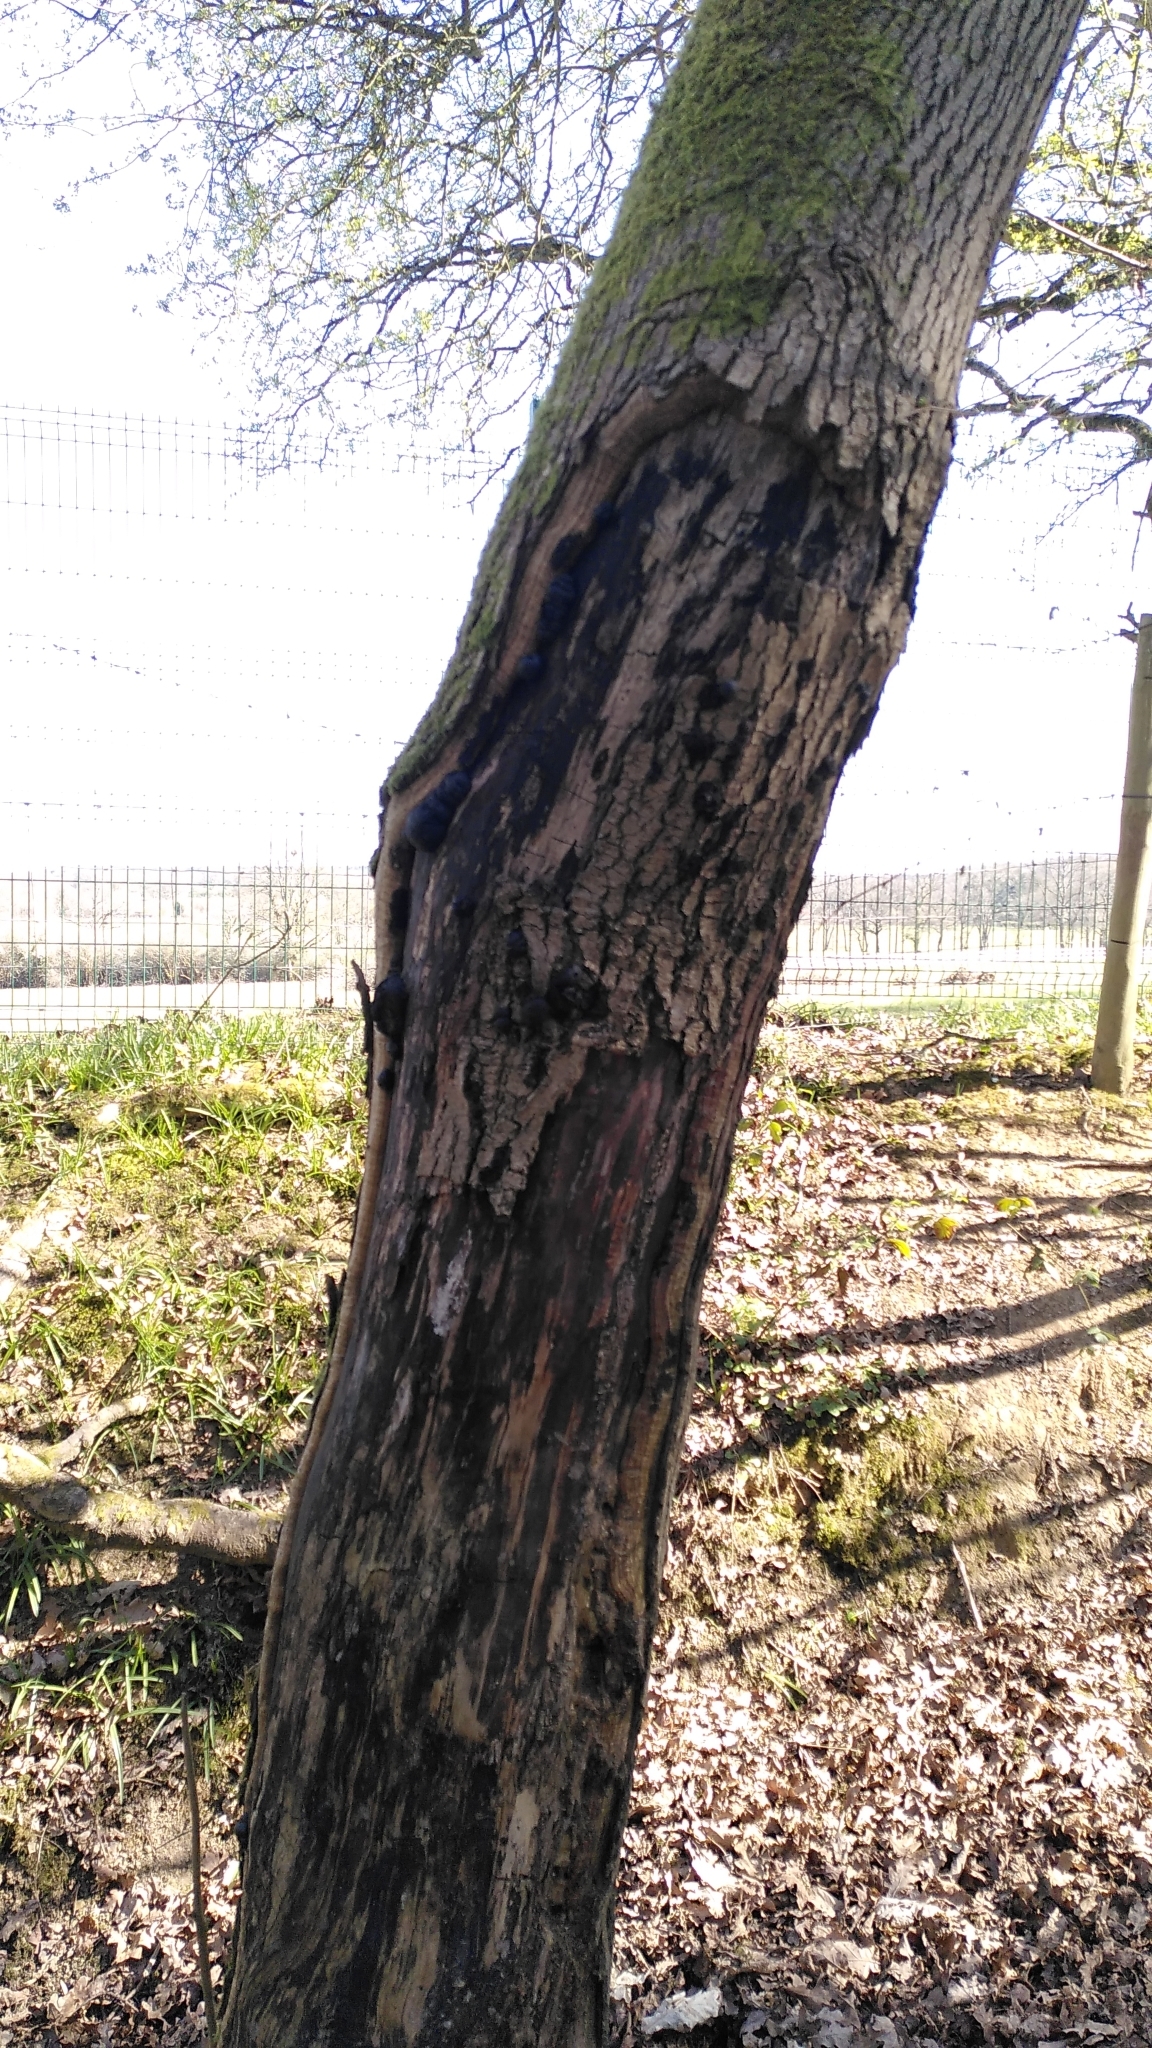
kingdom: Fungi
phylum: Ascomycota
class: Sordariomycetes
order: Xylariales
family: Hypoxylaceae
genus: Daldinia
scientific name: Daldinia concentrica
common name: Cramp balls
